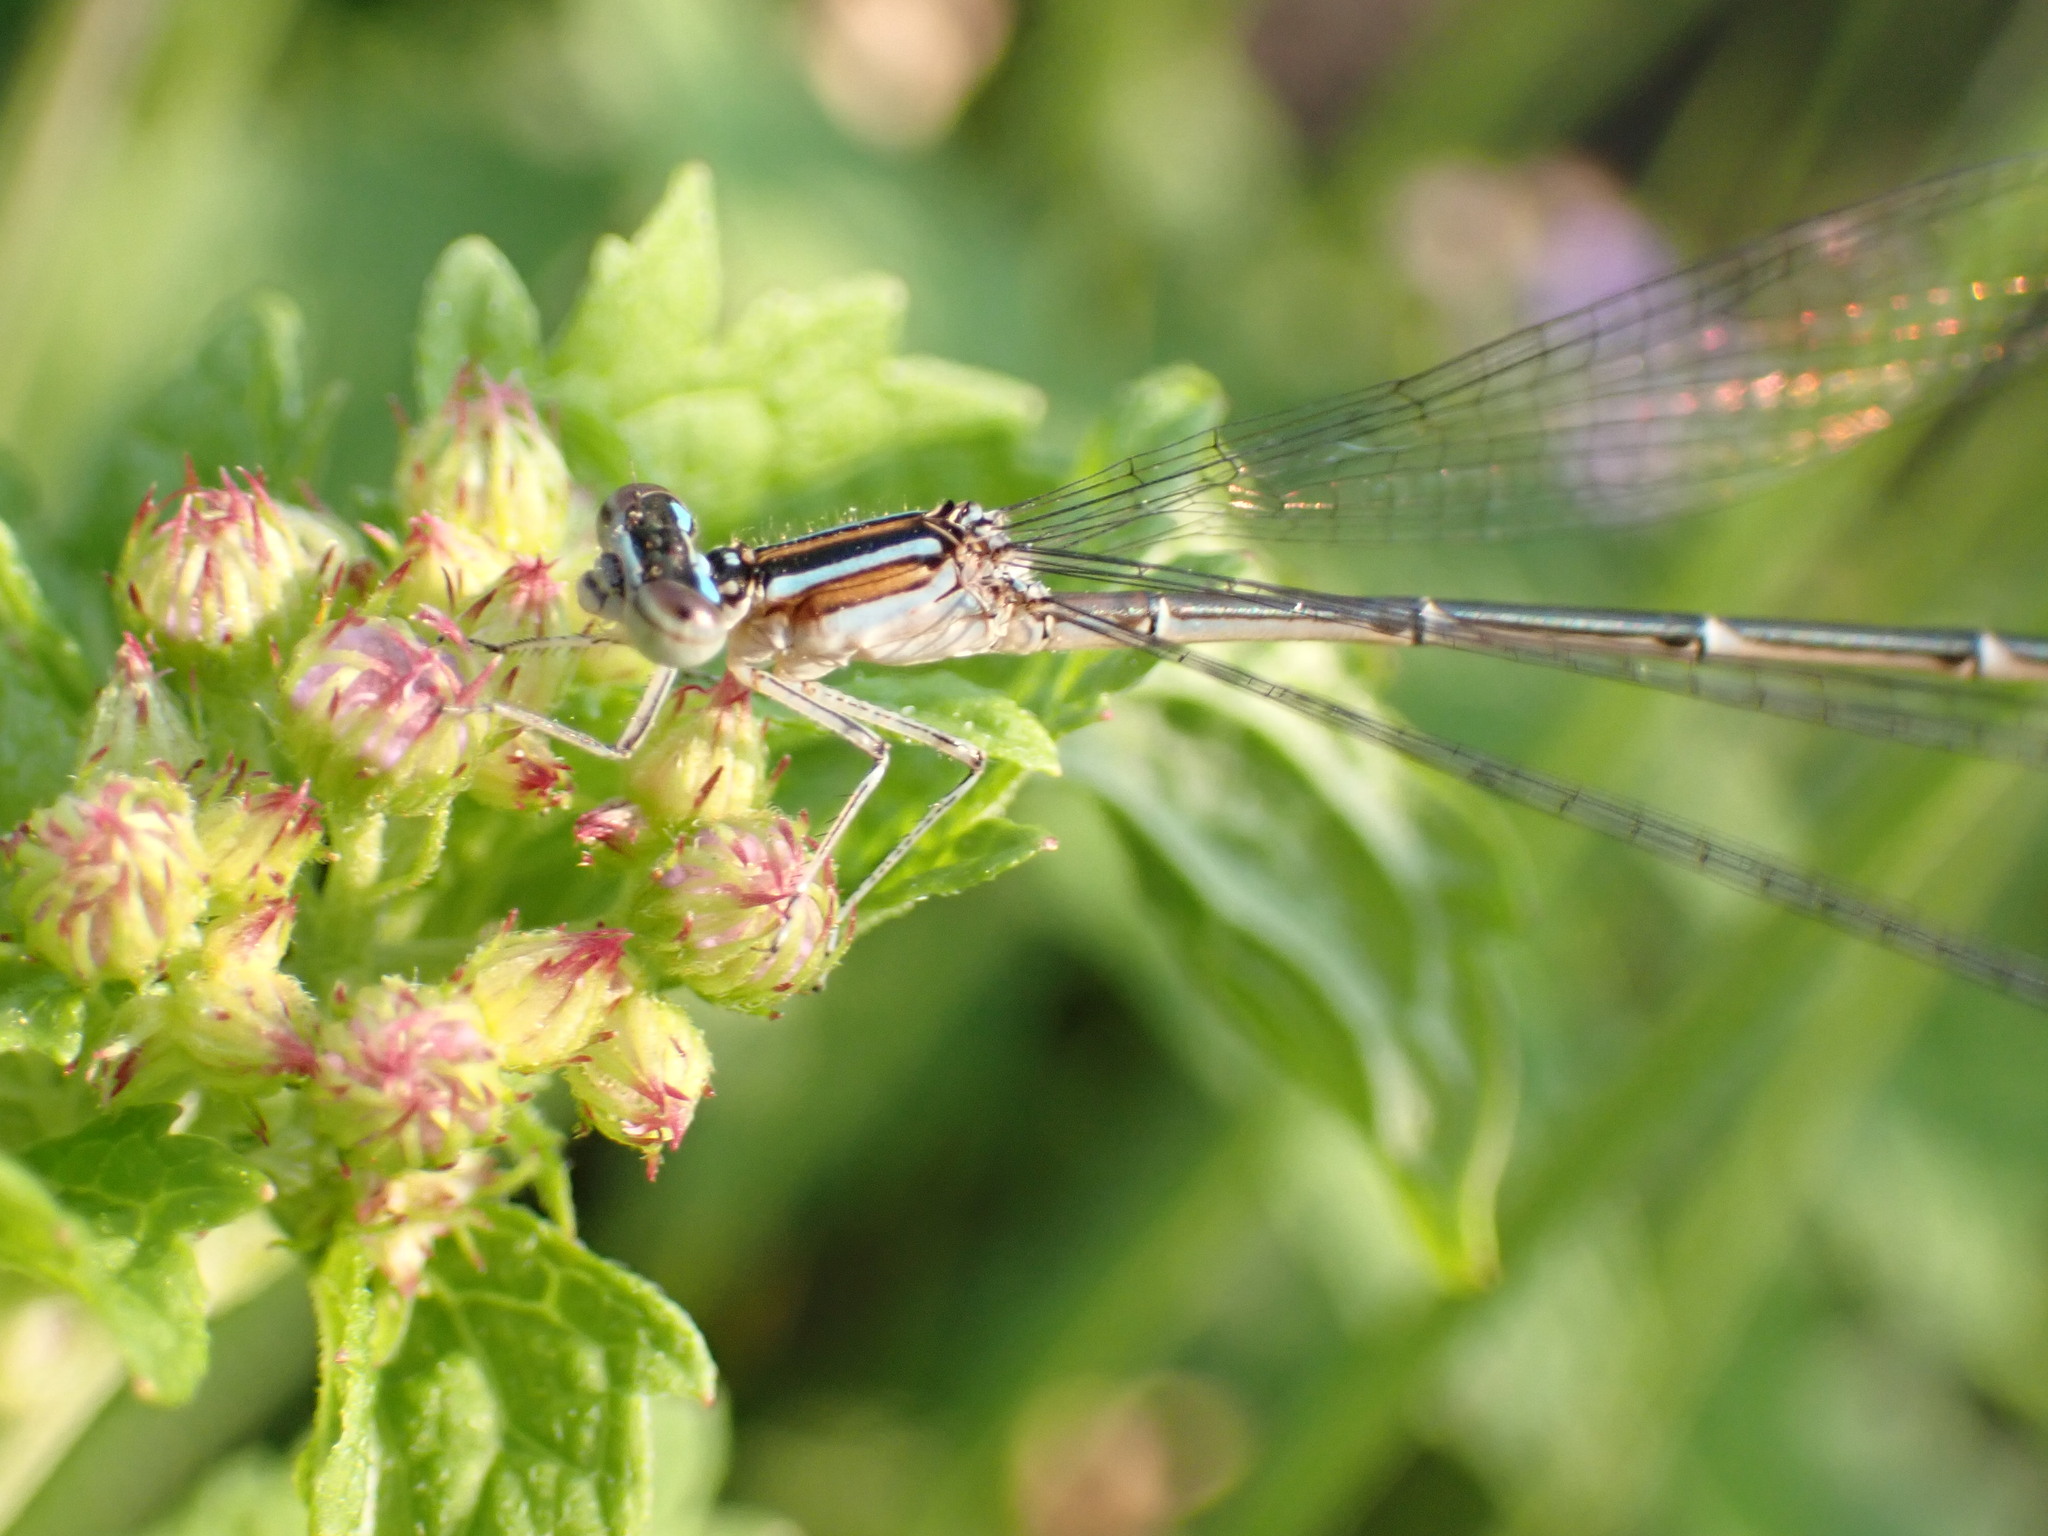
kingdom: Animalia
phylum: Arthropoda
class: Insecta
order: Odonata
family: Coenagrionidae
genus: Enallagma
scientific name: Enallagma exsulans
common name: Stream bluet
